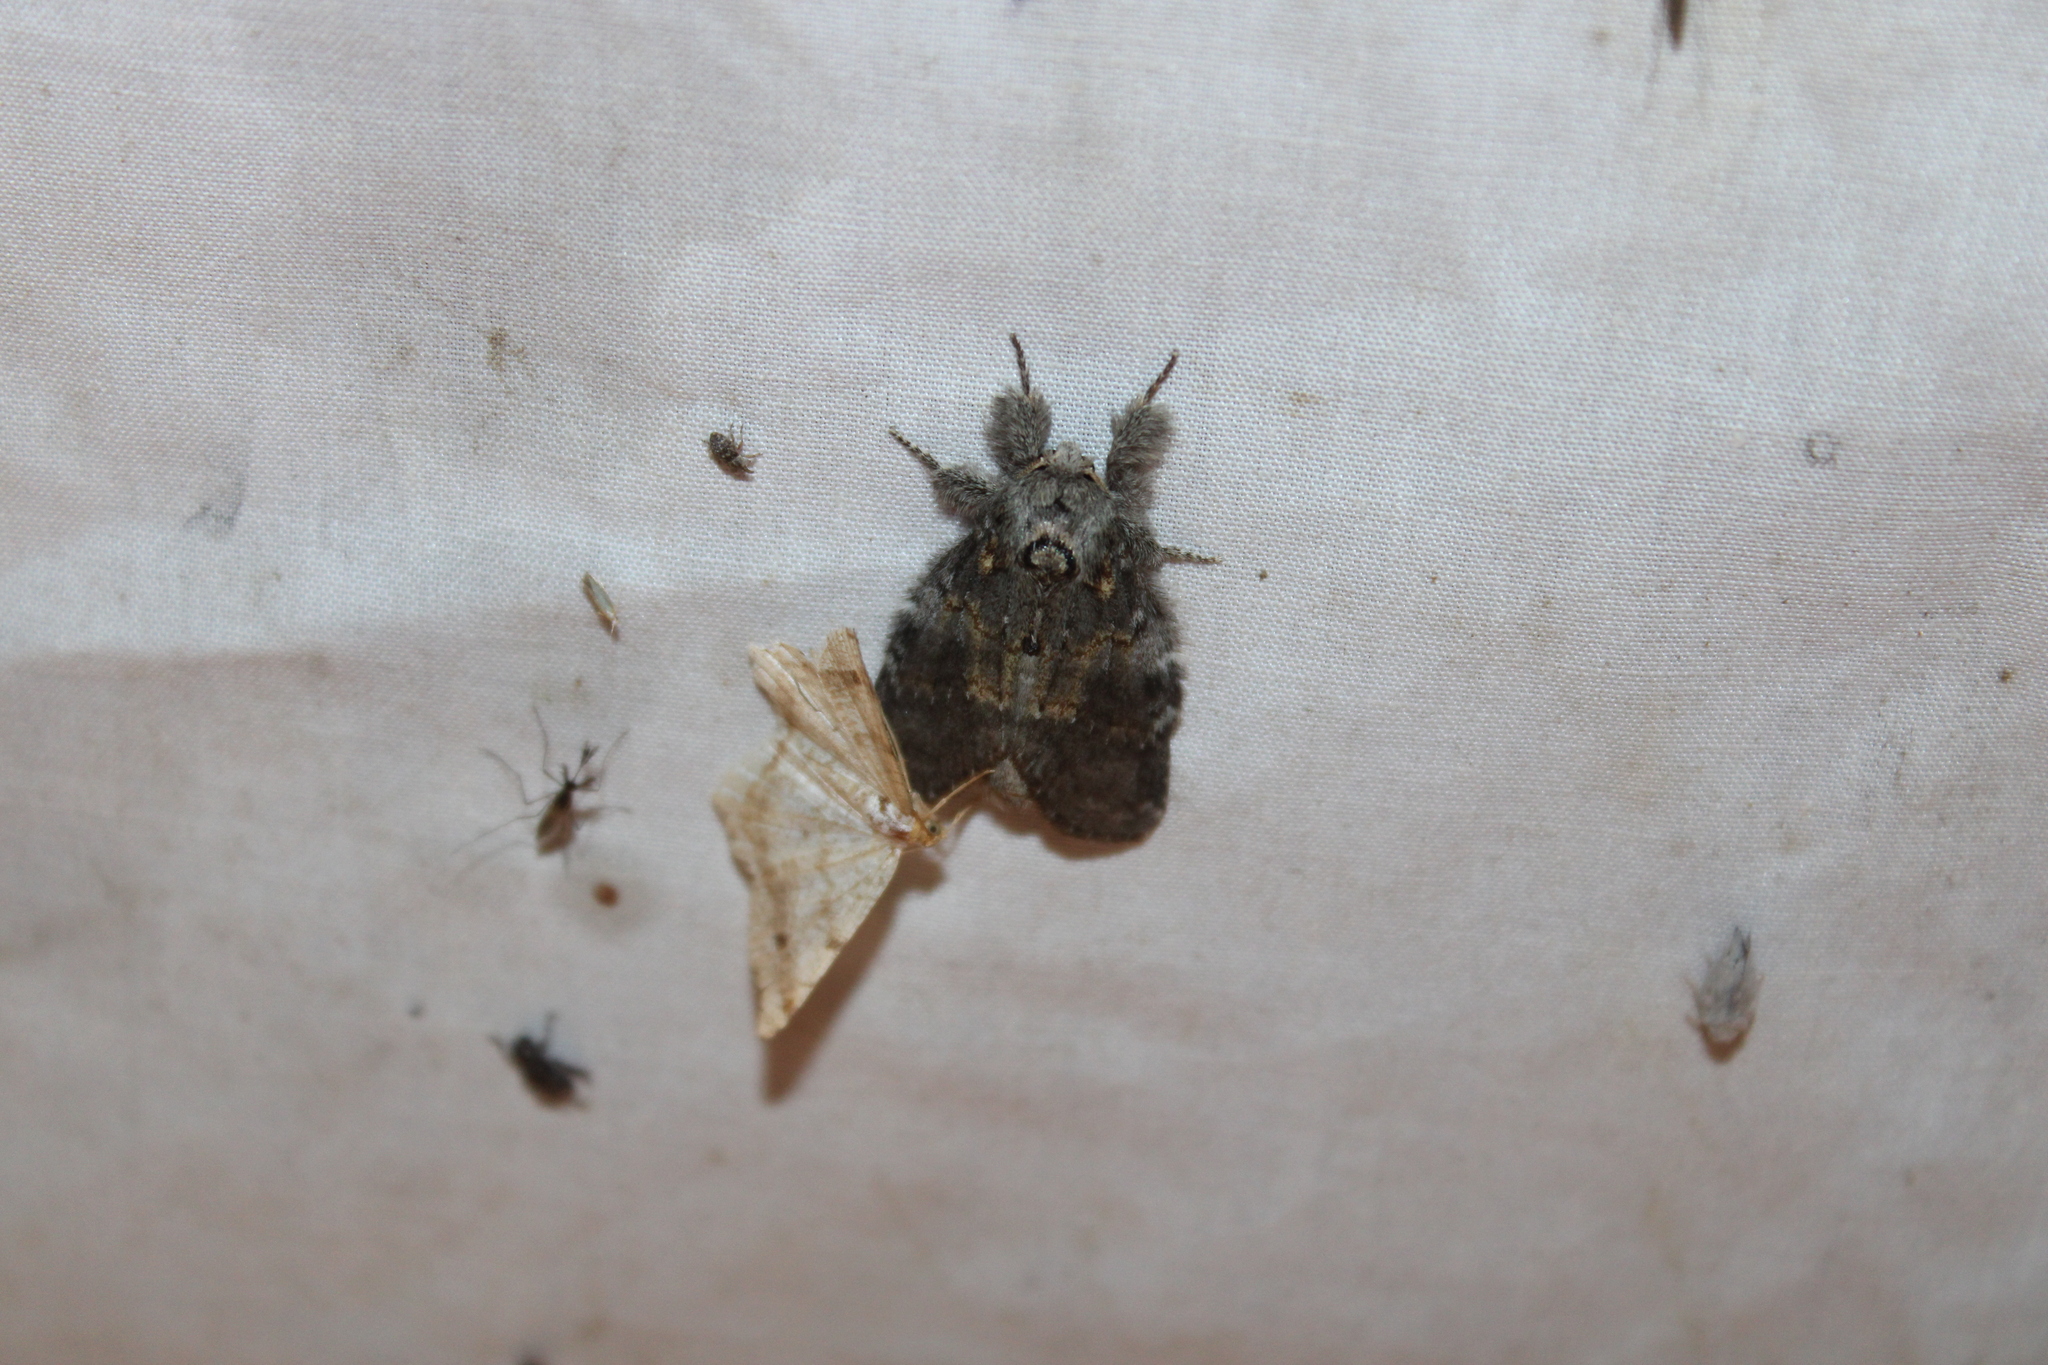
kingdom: Animalia
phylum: Arthropoda
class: Insecta
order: Lepidoptera
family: Notodontidae
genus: Peridea
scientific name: Peridea angulosa
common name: Angulose prominent
